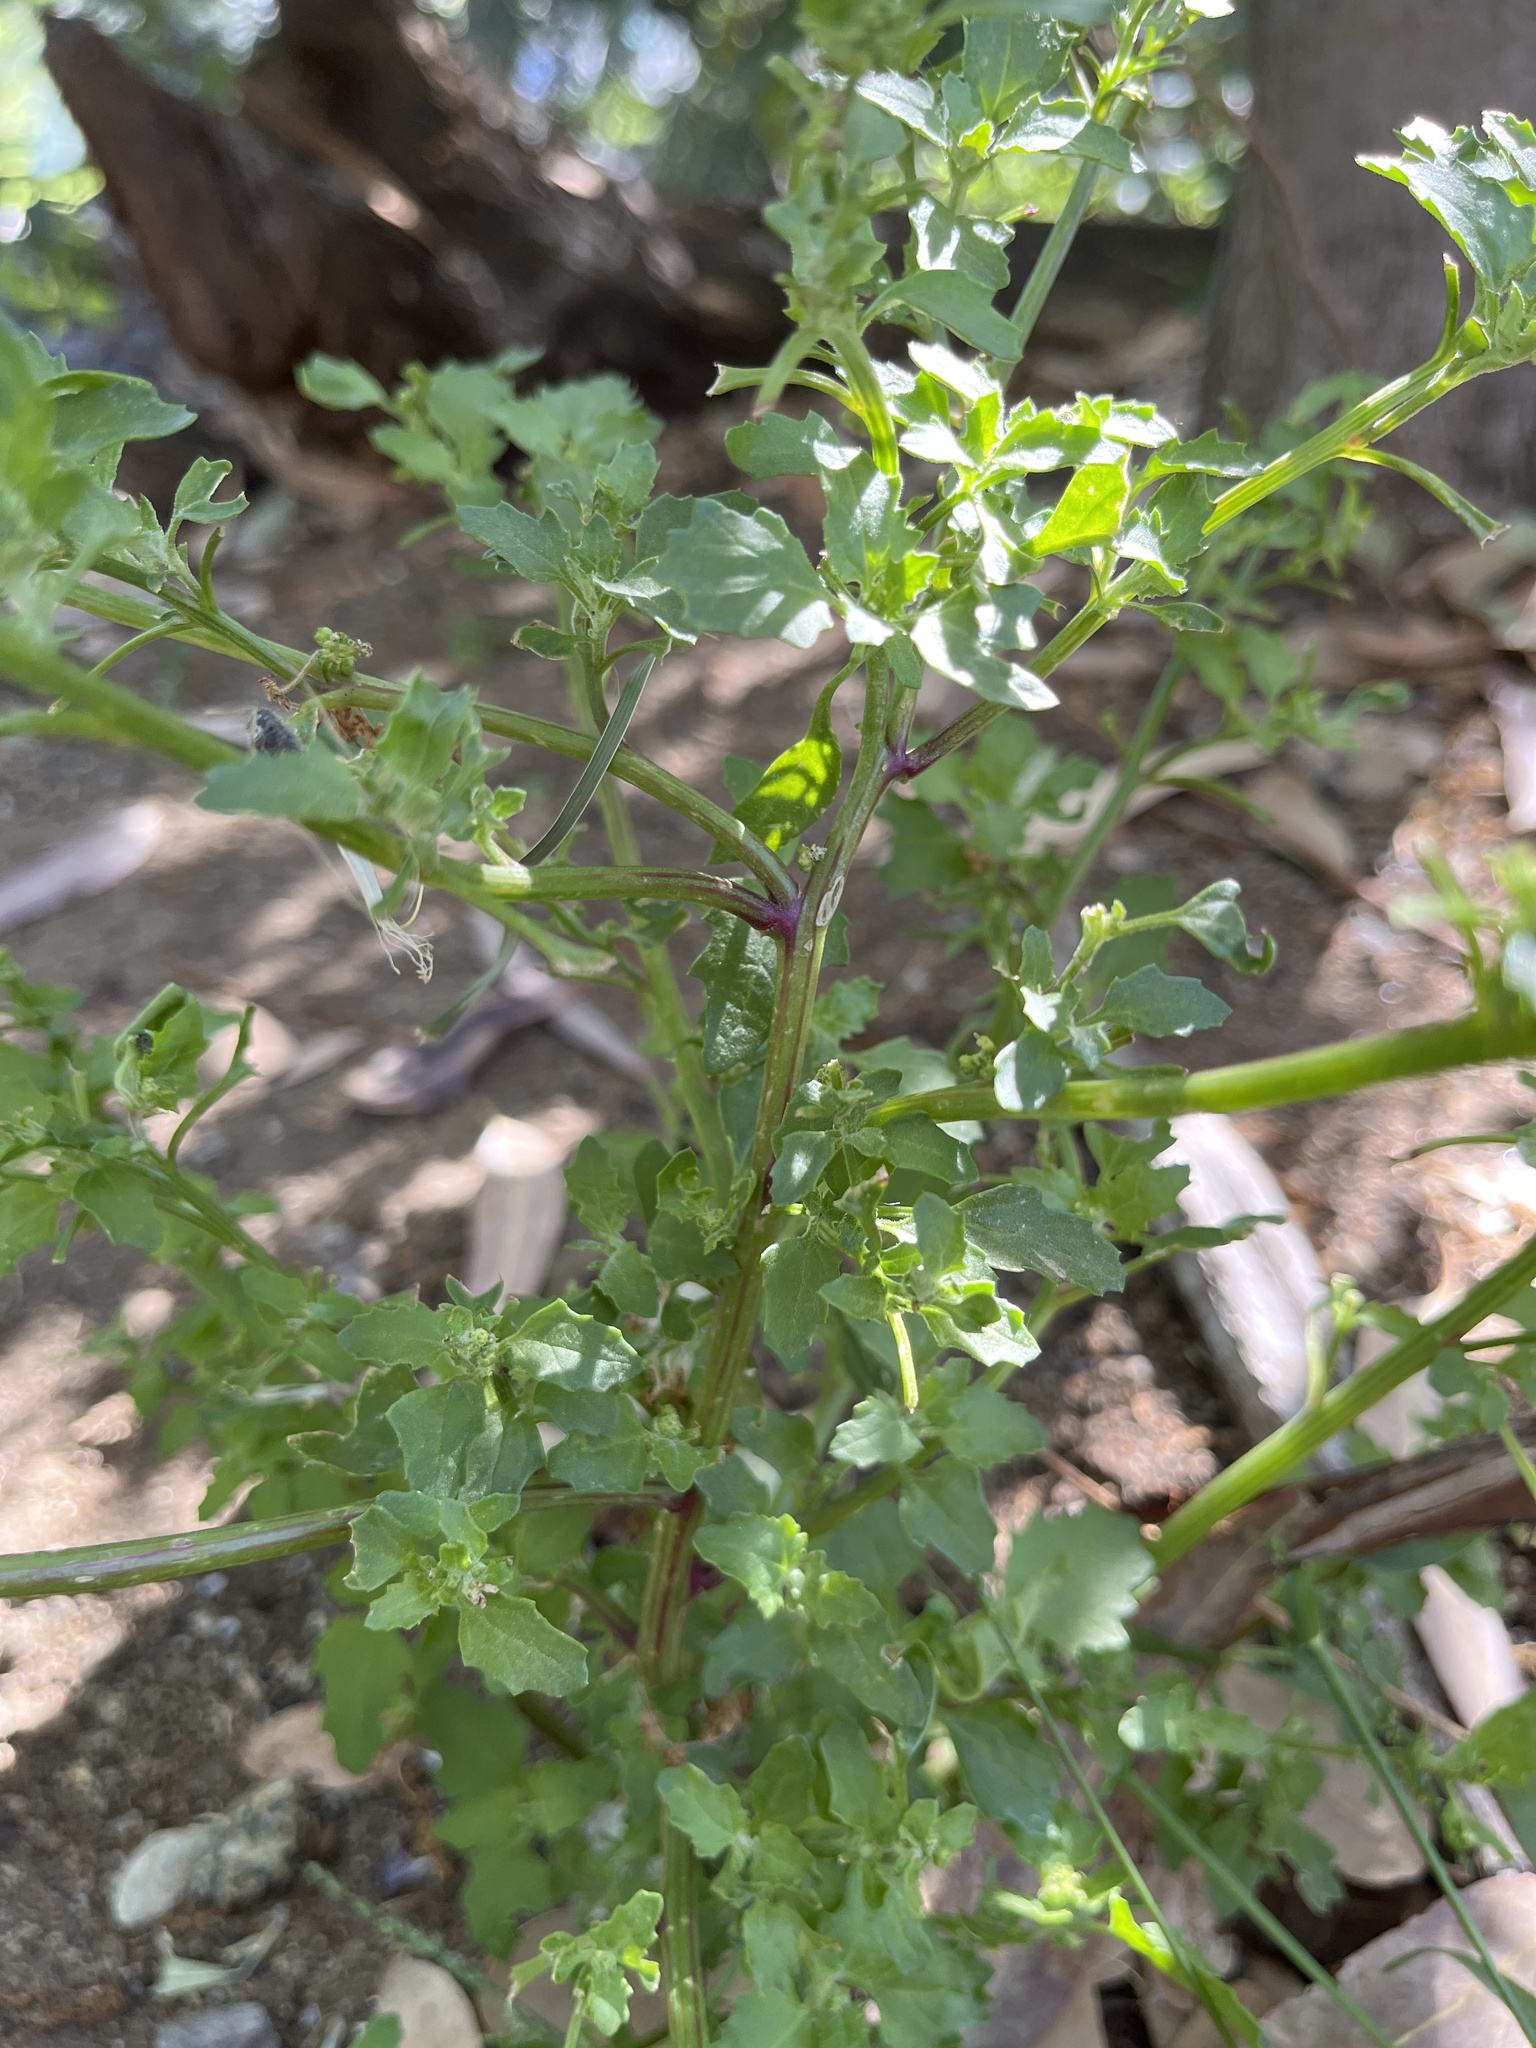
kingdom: Plantae
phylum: Tracheophyta
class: Magnoliopsida
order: Caryophyllales
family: Amaranthaceae
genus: Chenopodiastrum
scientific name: Chenopodiastrum murale
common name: Sowbane
